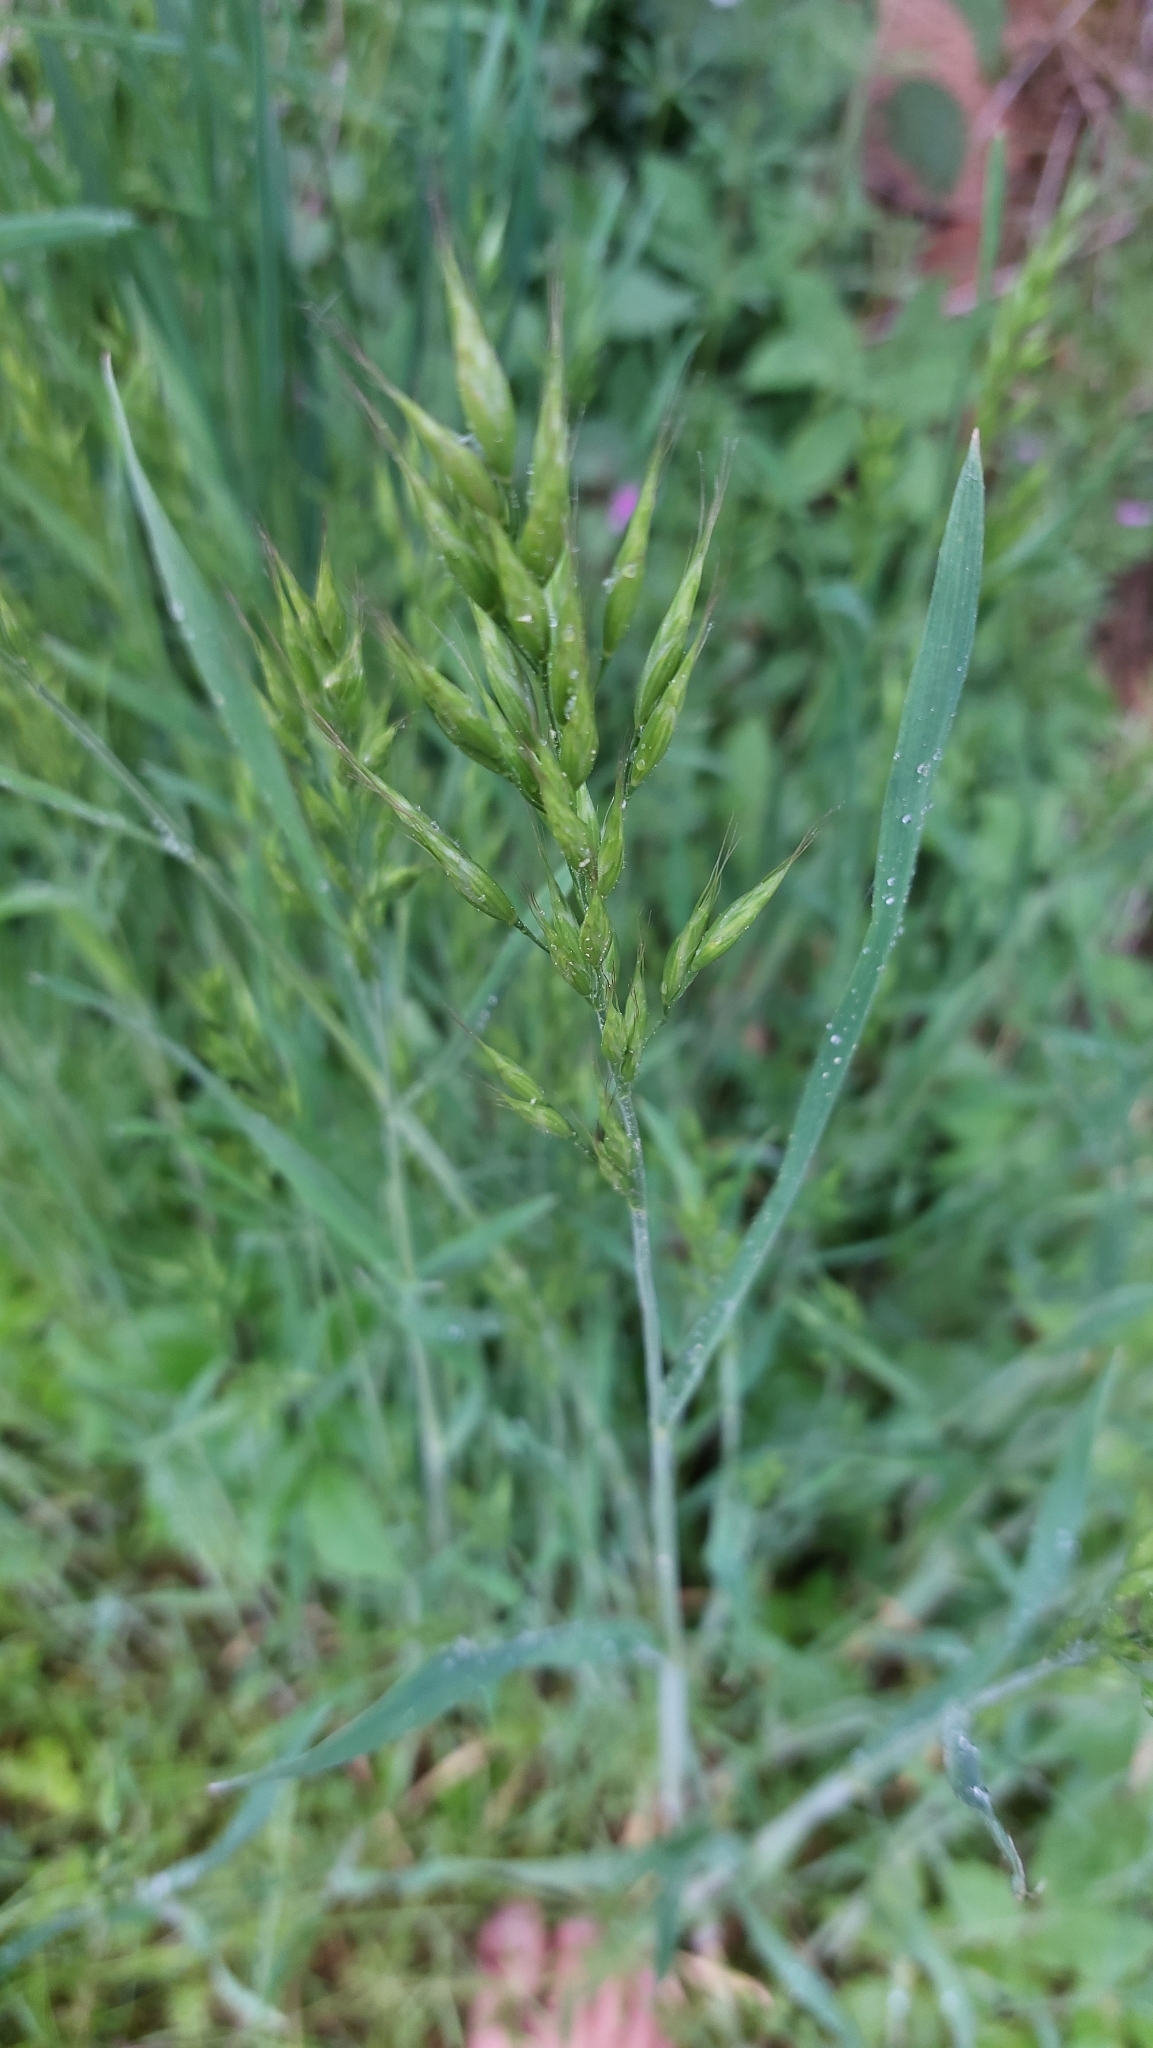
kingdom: Plantae
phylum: Tracheophyta
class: Liliopsida
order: Poales
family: Poaceae
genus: Bromus
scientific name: Bromus hordeaceus
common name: Soft brome
